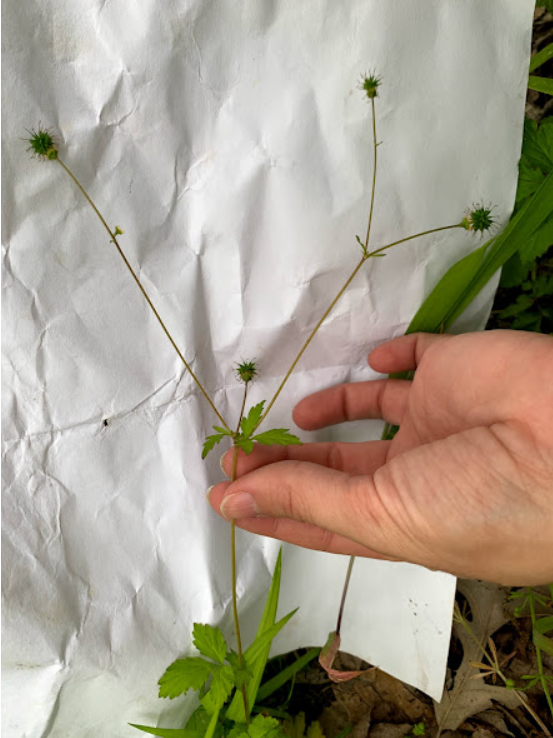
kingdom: Plantae
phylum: Tracheophyta
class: Magnoliopsida
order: Rosales
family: Rosaceae
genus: Geum
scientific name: Geum vernum
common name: Spring avens
